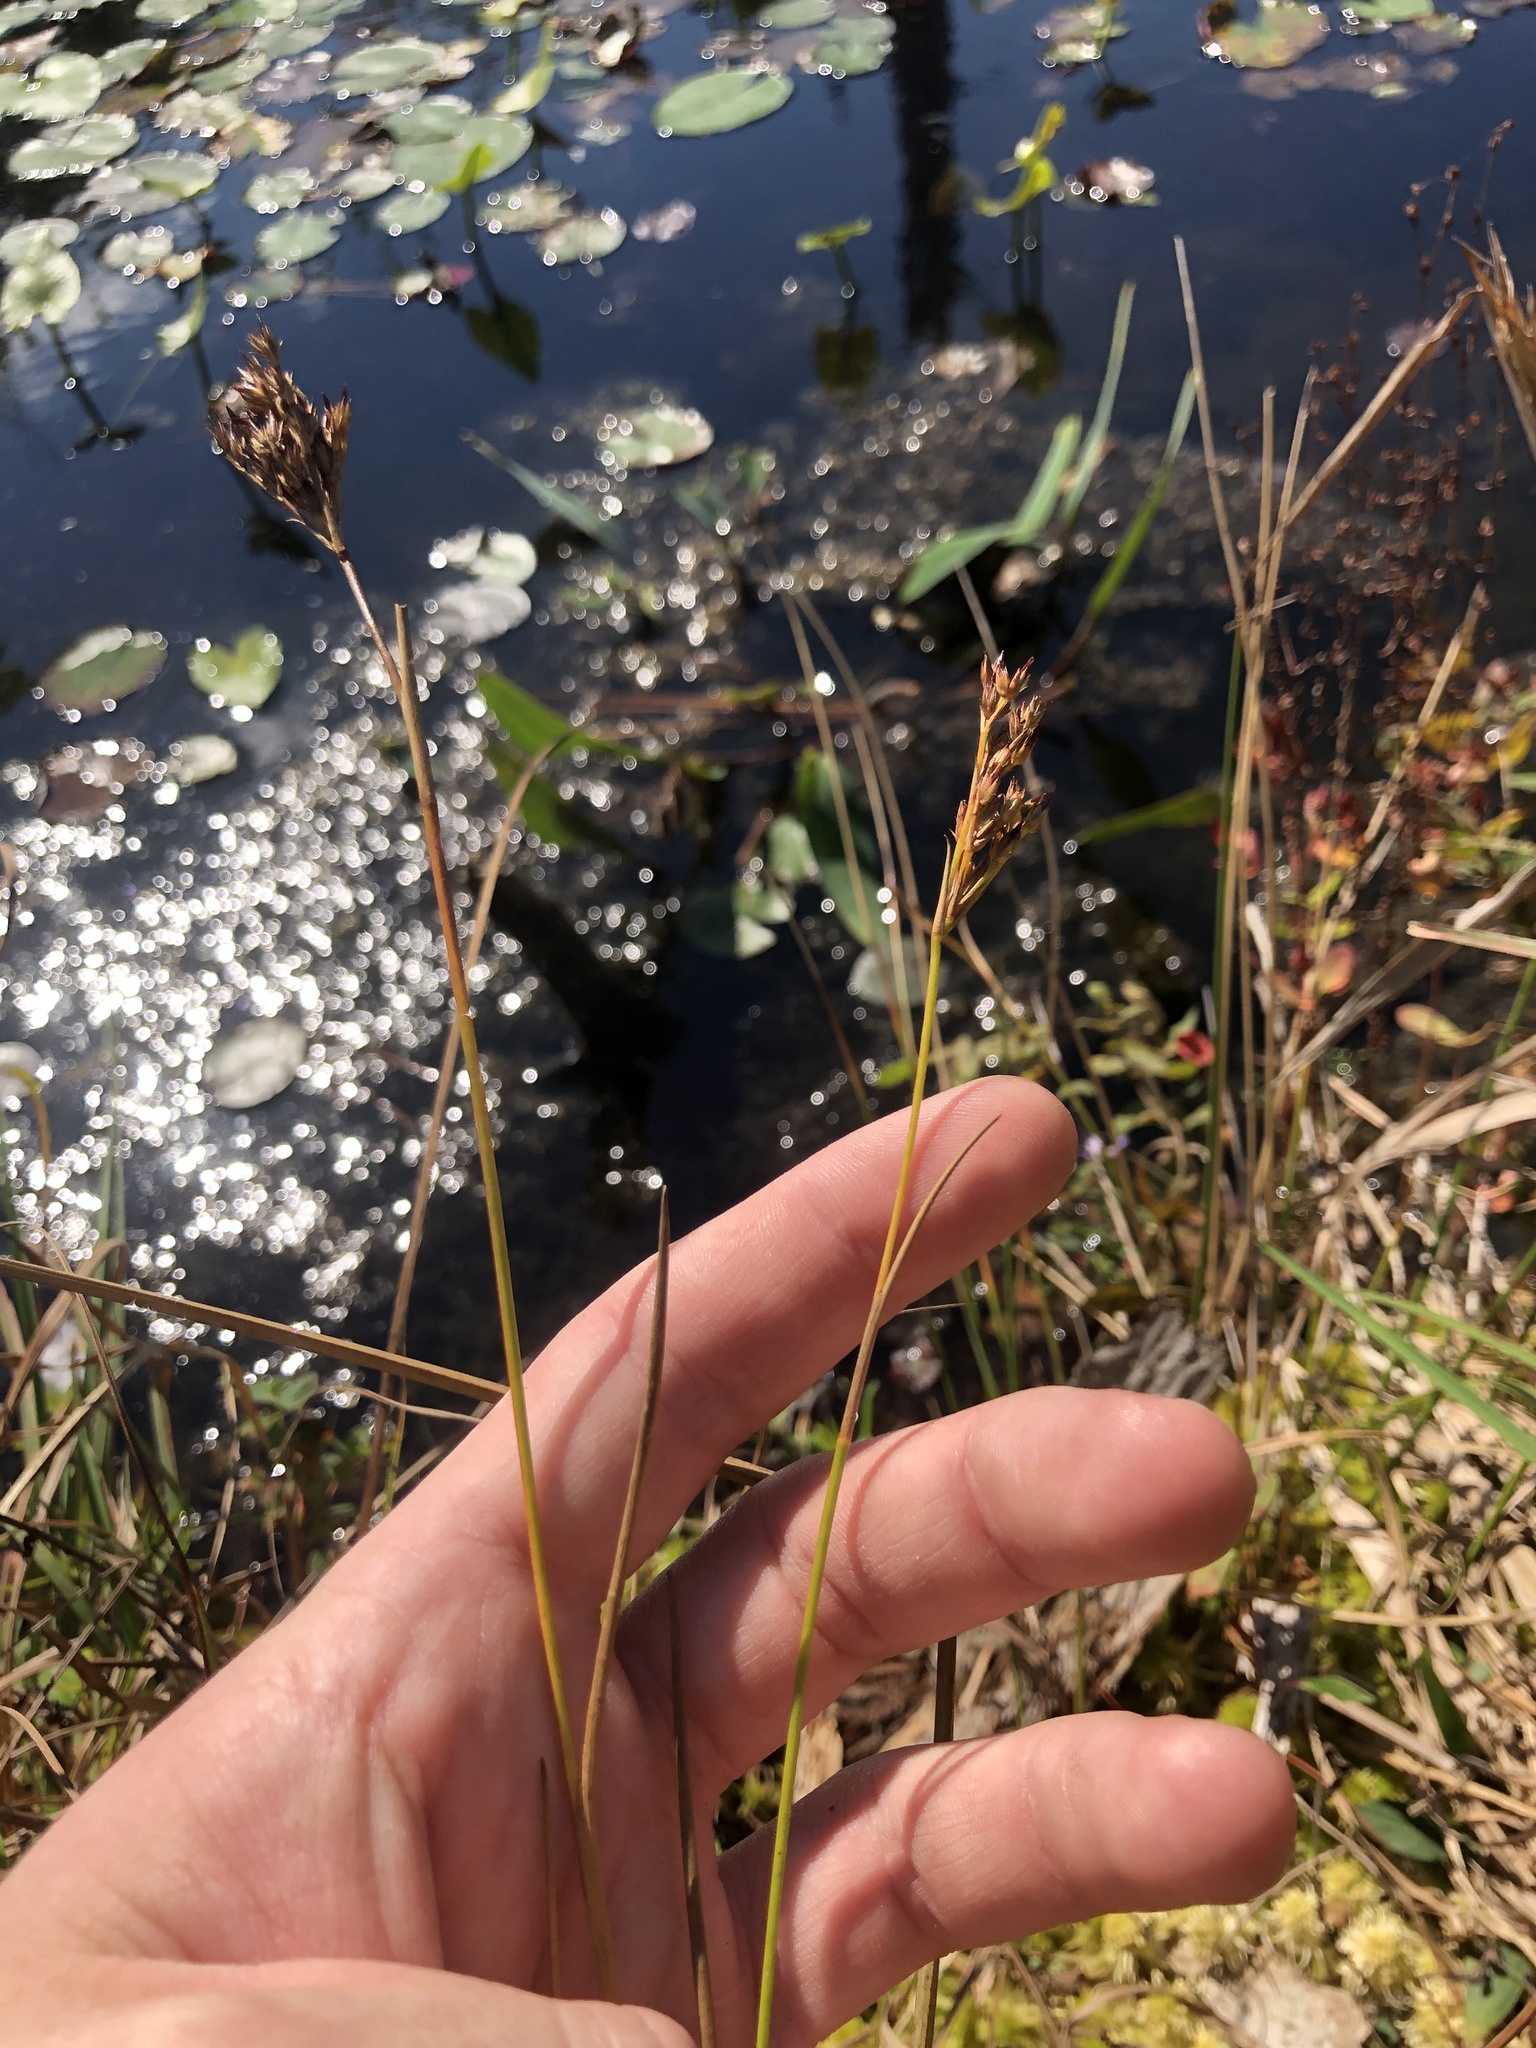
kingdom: Plantae
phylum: Tracheophyta
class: Liliopsida
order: Poales
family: Juncaceae
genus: Juncus
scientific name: Juncus trigonocarpus
